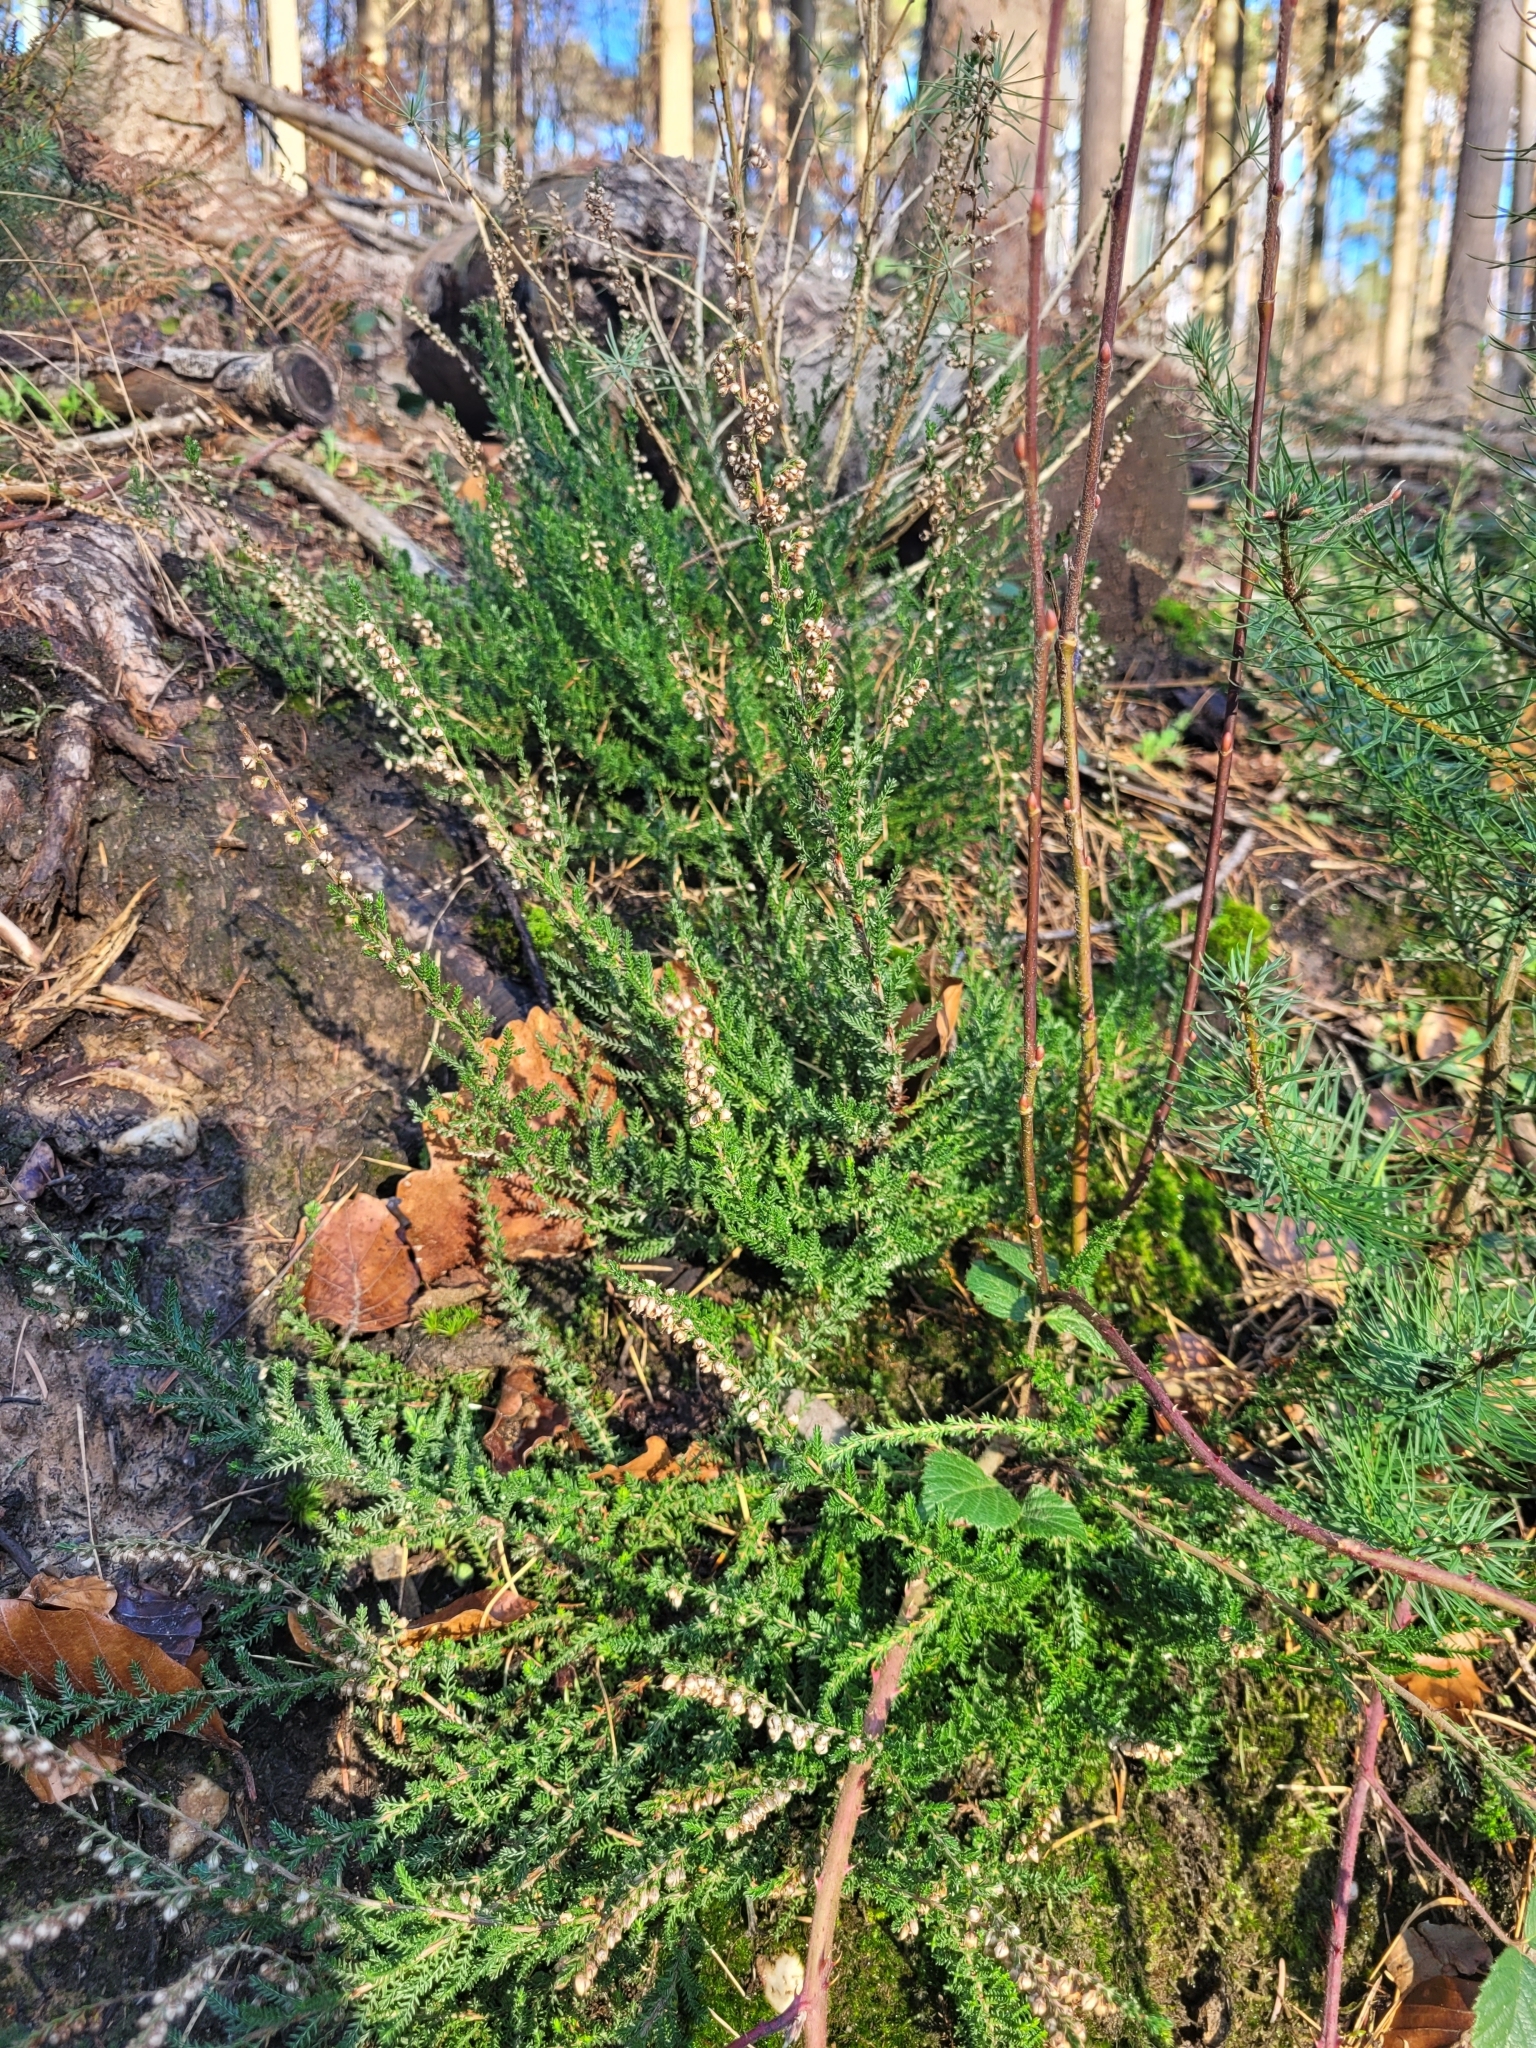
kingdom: Plantae
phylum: Tracheophyta
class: Magnoliopsida
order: Ericales
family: Ericaceae
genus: Calluna
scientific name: Calluna vulgaris
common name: Heather
